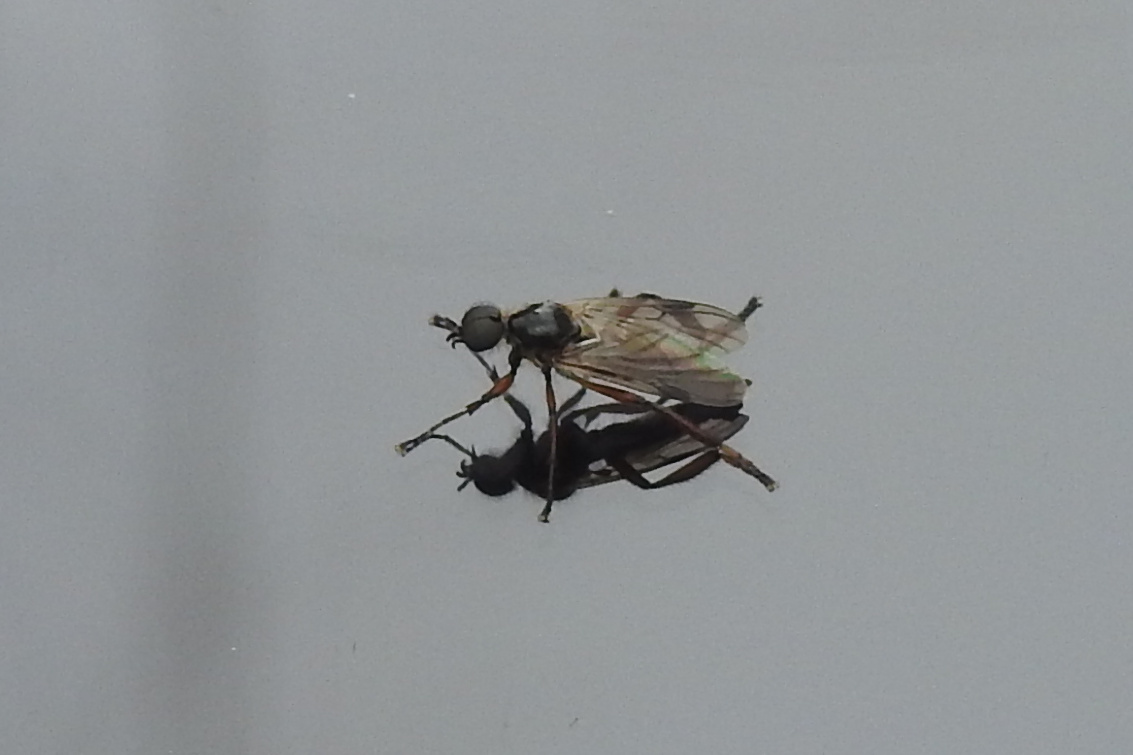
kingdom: Animalia
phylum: Arthropoda
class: Insecta
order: Diptera
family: Bibionidae
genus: Bibio
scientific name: Bibio articulatus
